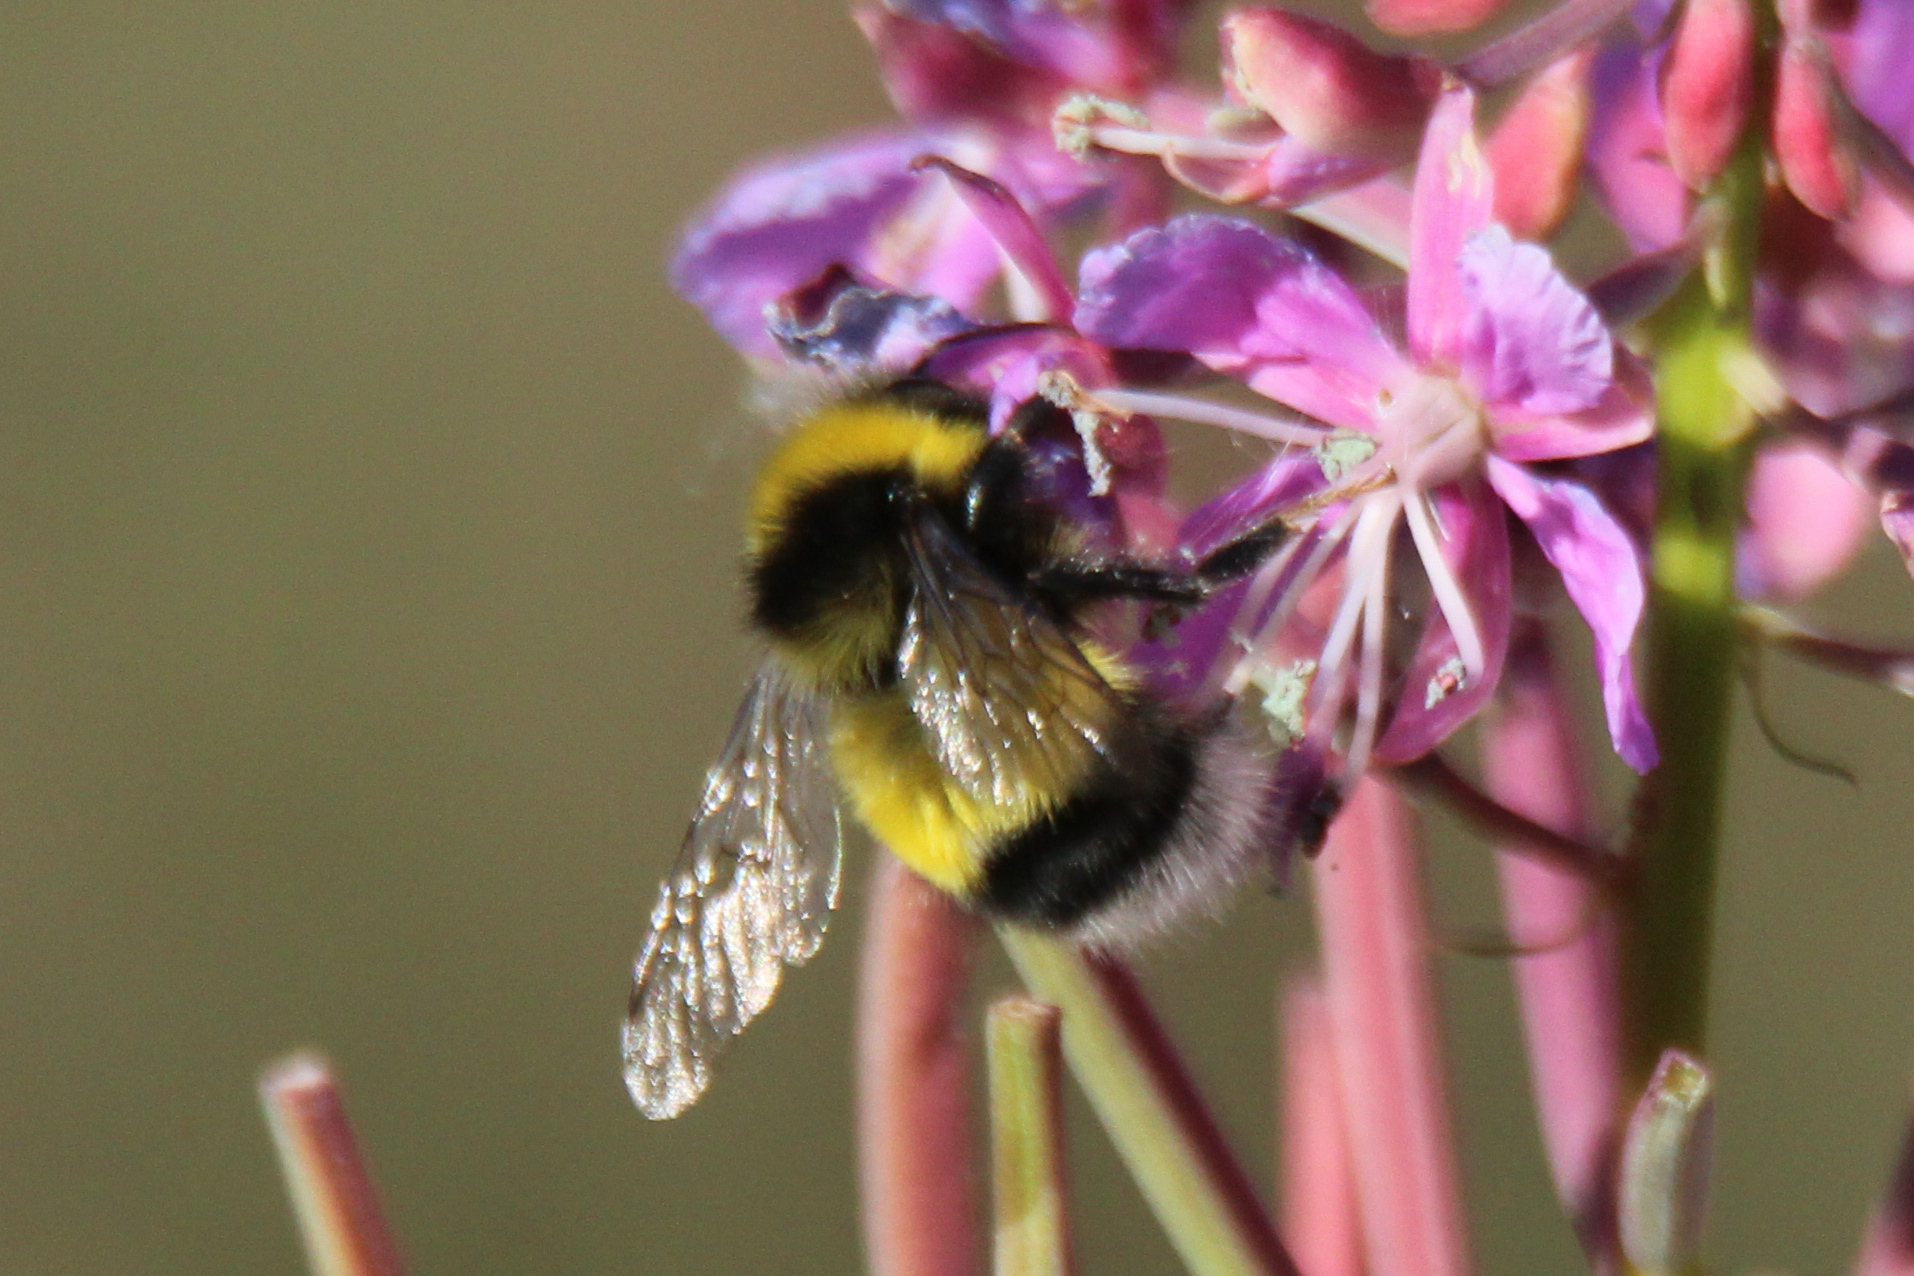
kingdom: Animalia
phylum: Arthropoda
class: Insecta
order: Hymenoptera
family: Apidae
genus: Bombus
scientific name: Bombus lucorum
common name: White-tailed bumblebee
